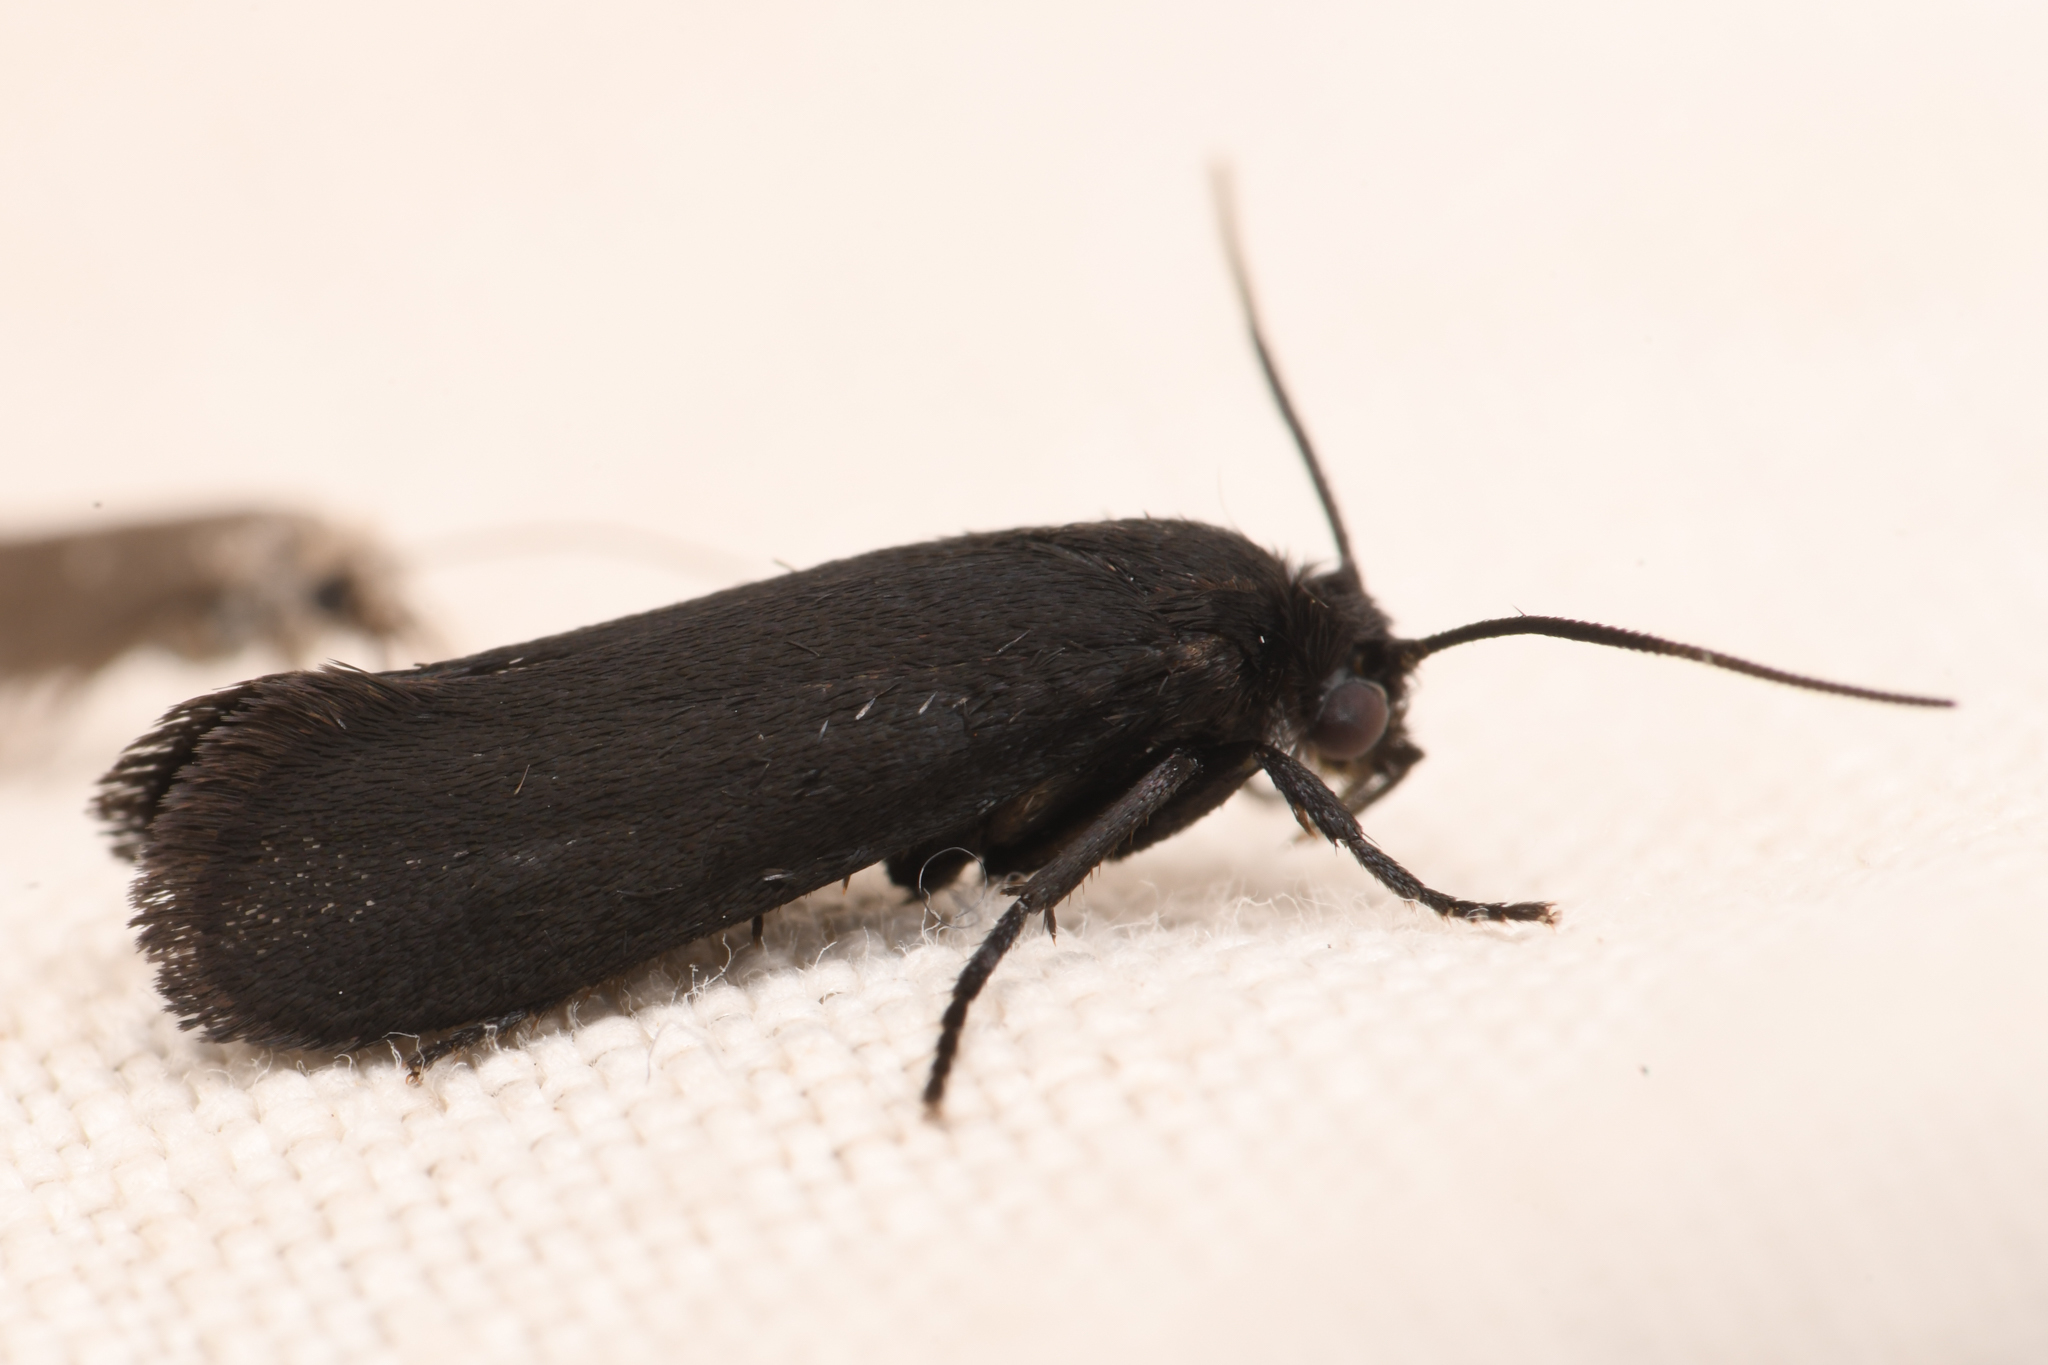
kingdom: Animalia
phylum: Arthropoda
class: Insecta
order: Lepidoptera
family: Prodoxidae
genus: Tegeticula
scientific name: Tegeticula maculata
